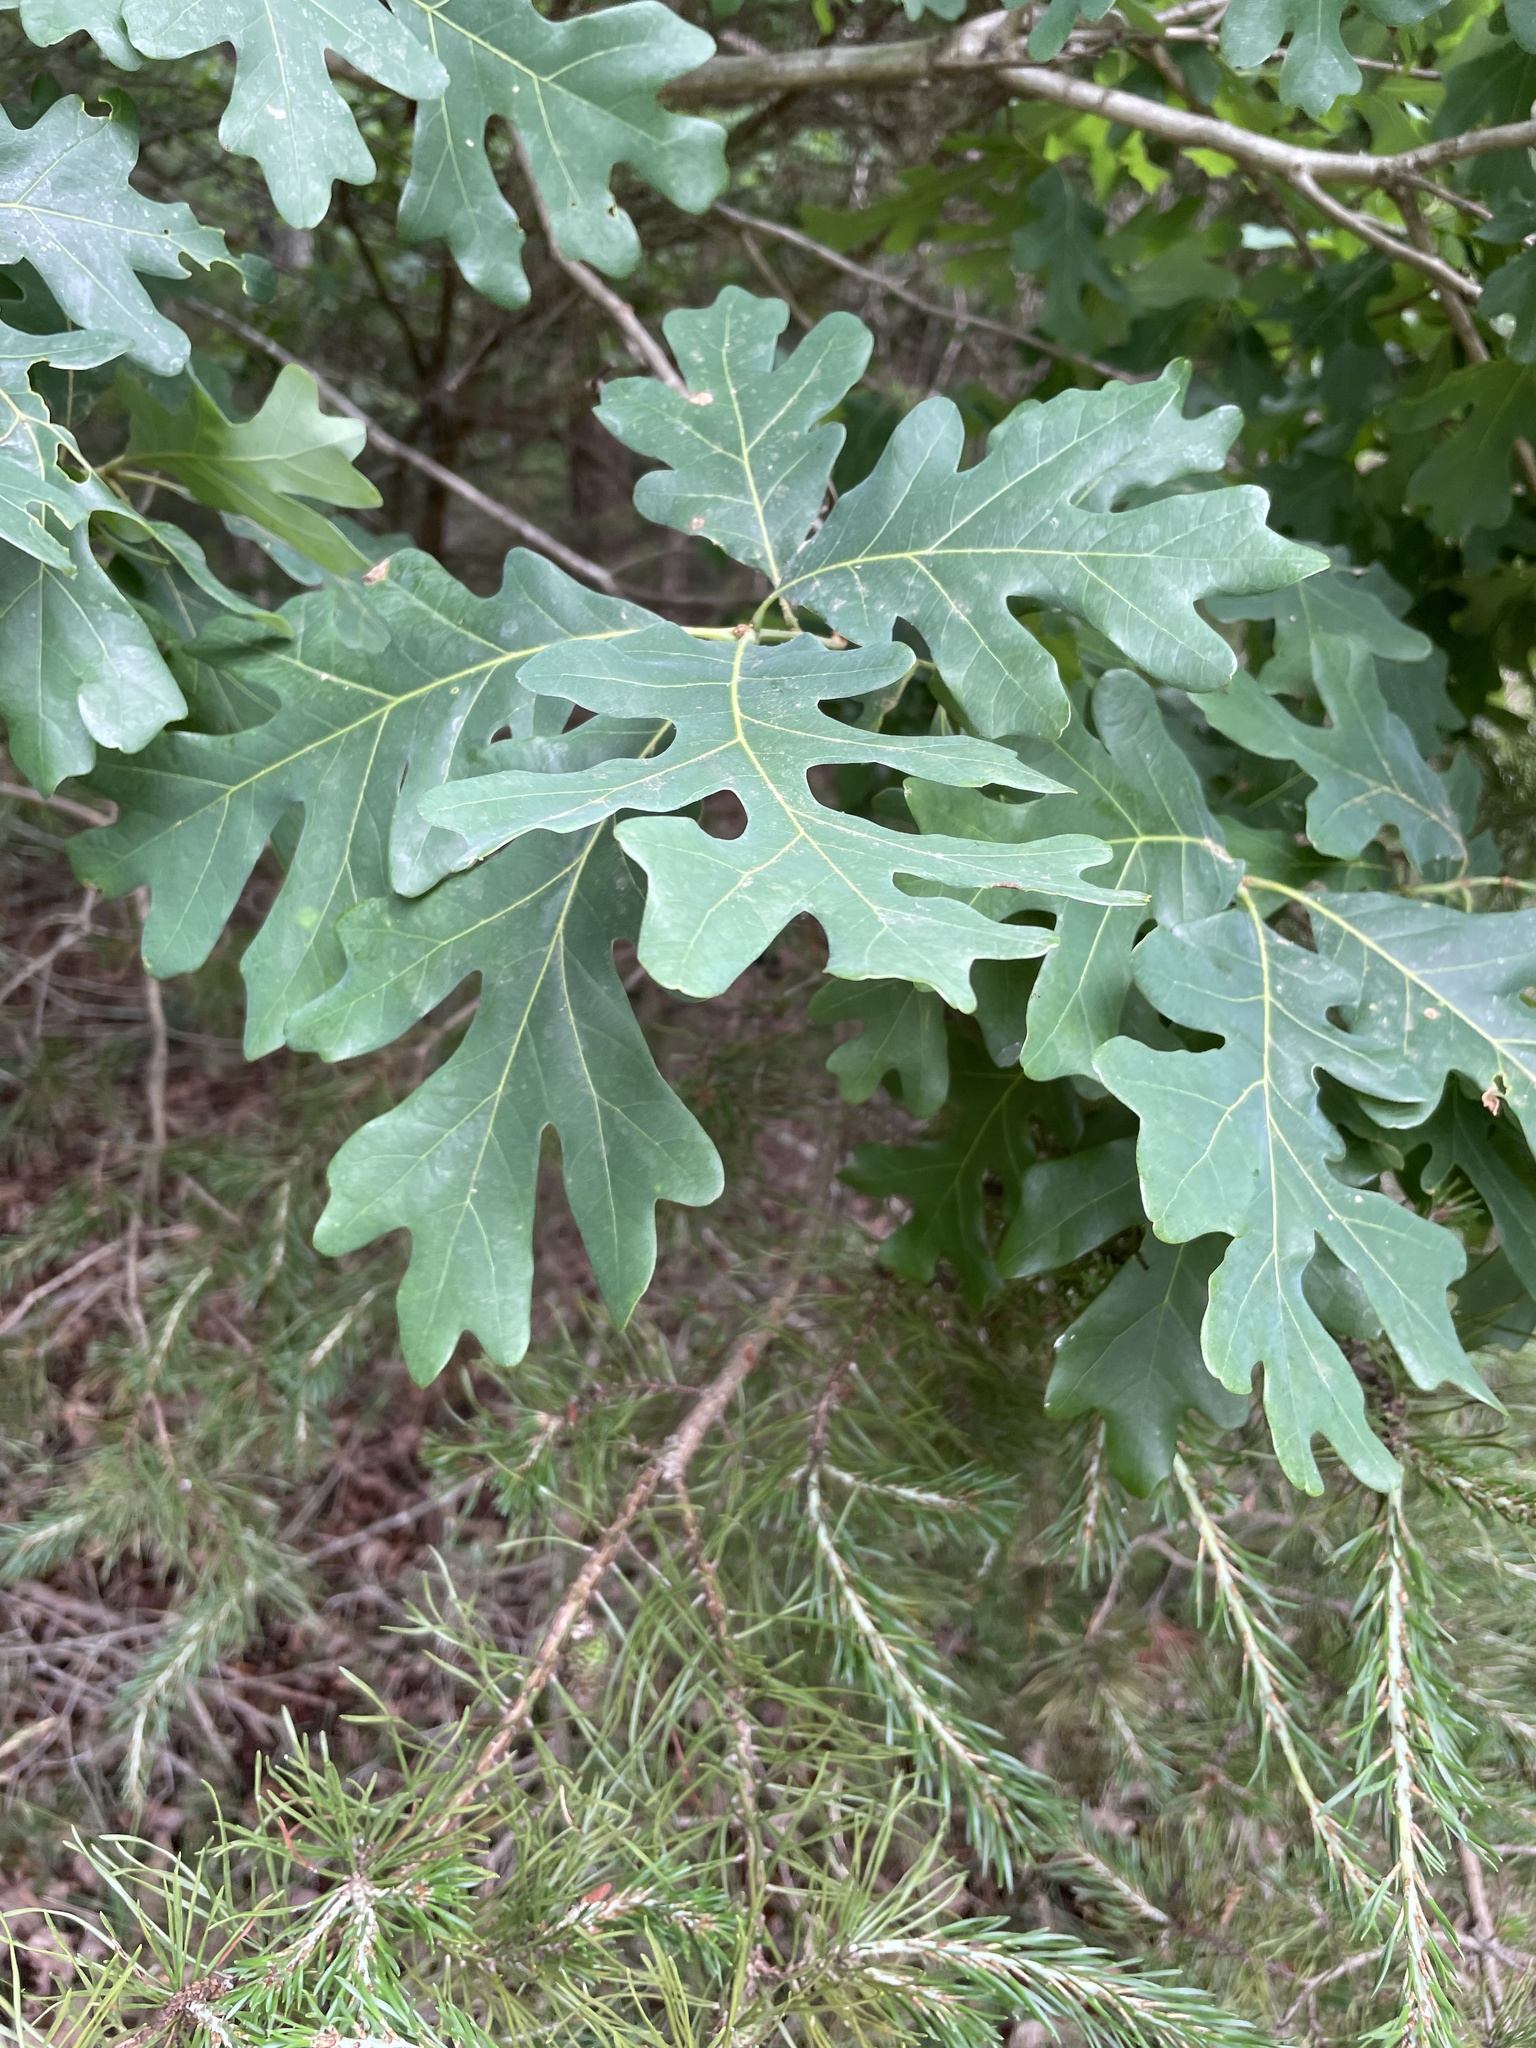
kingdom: Plantae
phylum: Tracheophyta
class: Magnoliopsida
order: Fagales
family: Fagaceae
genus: Quercus
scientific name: Quercus alba
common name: White oak
